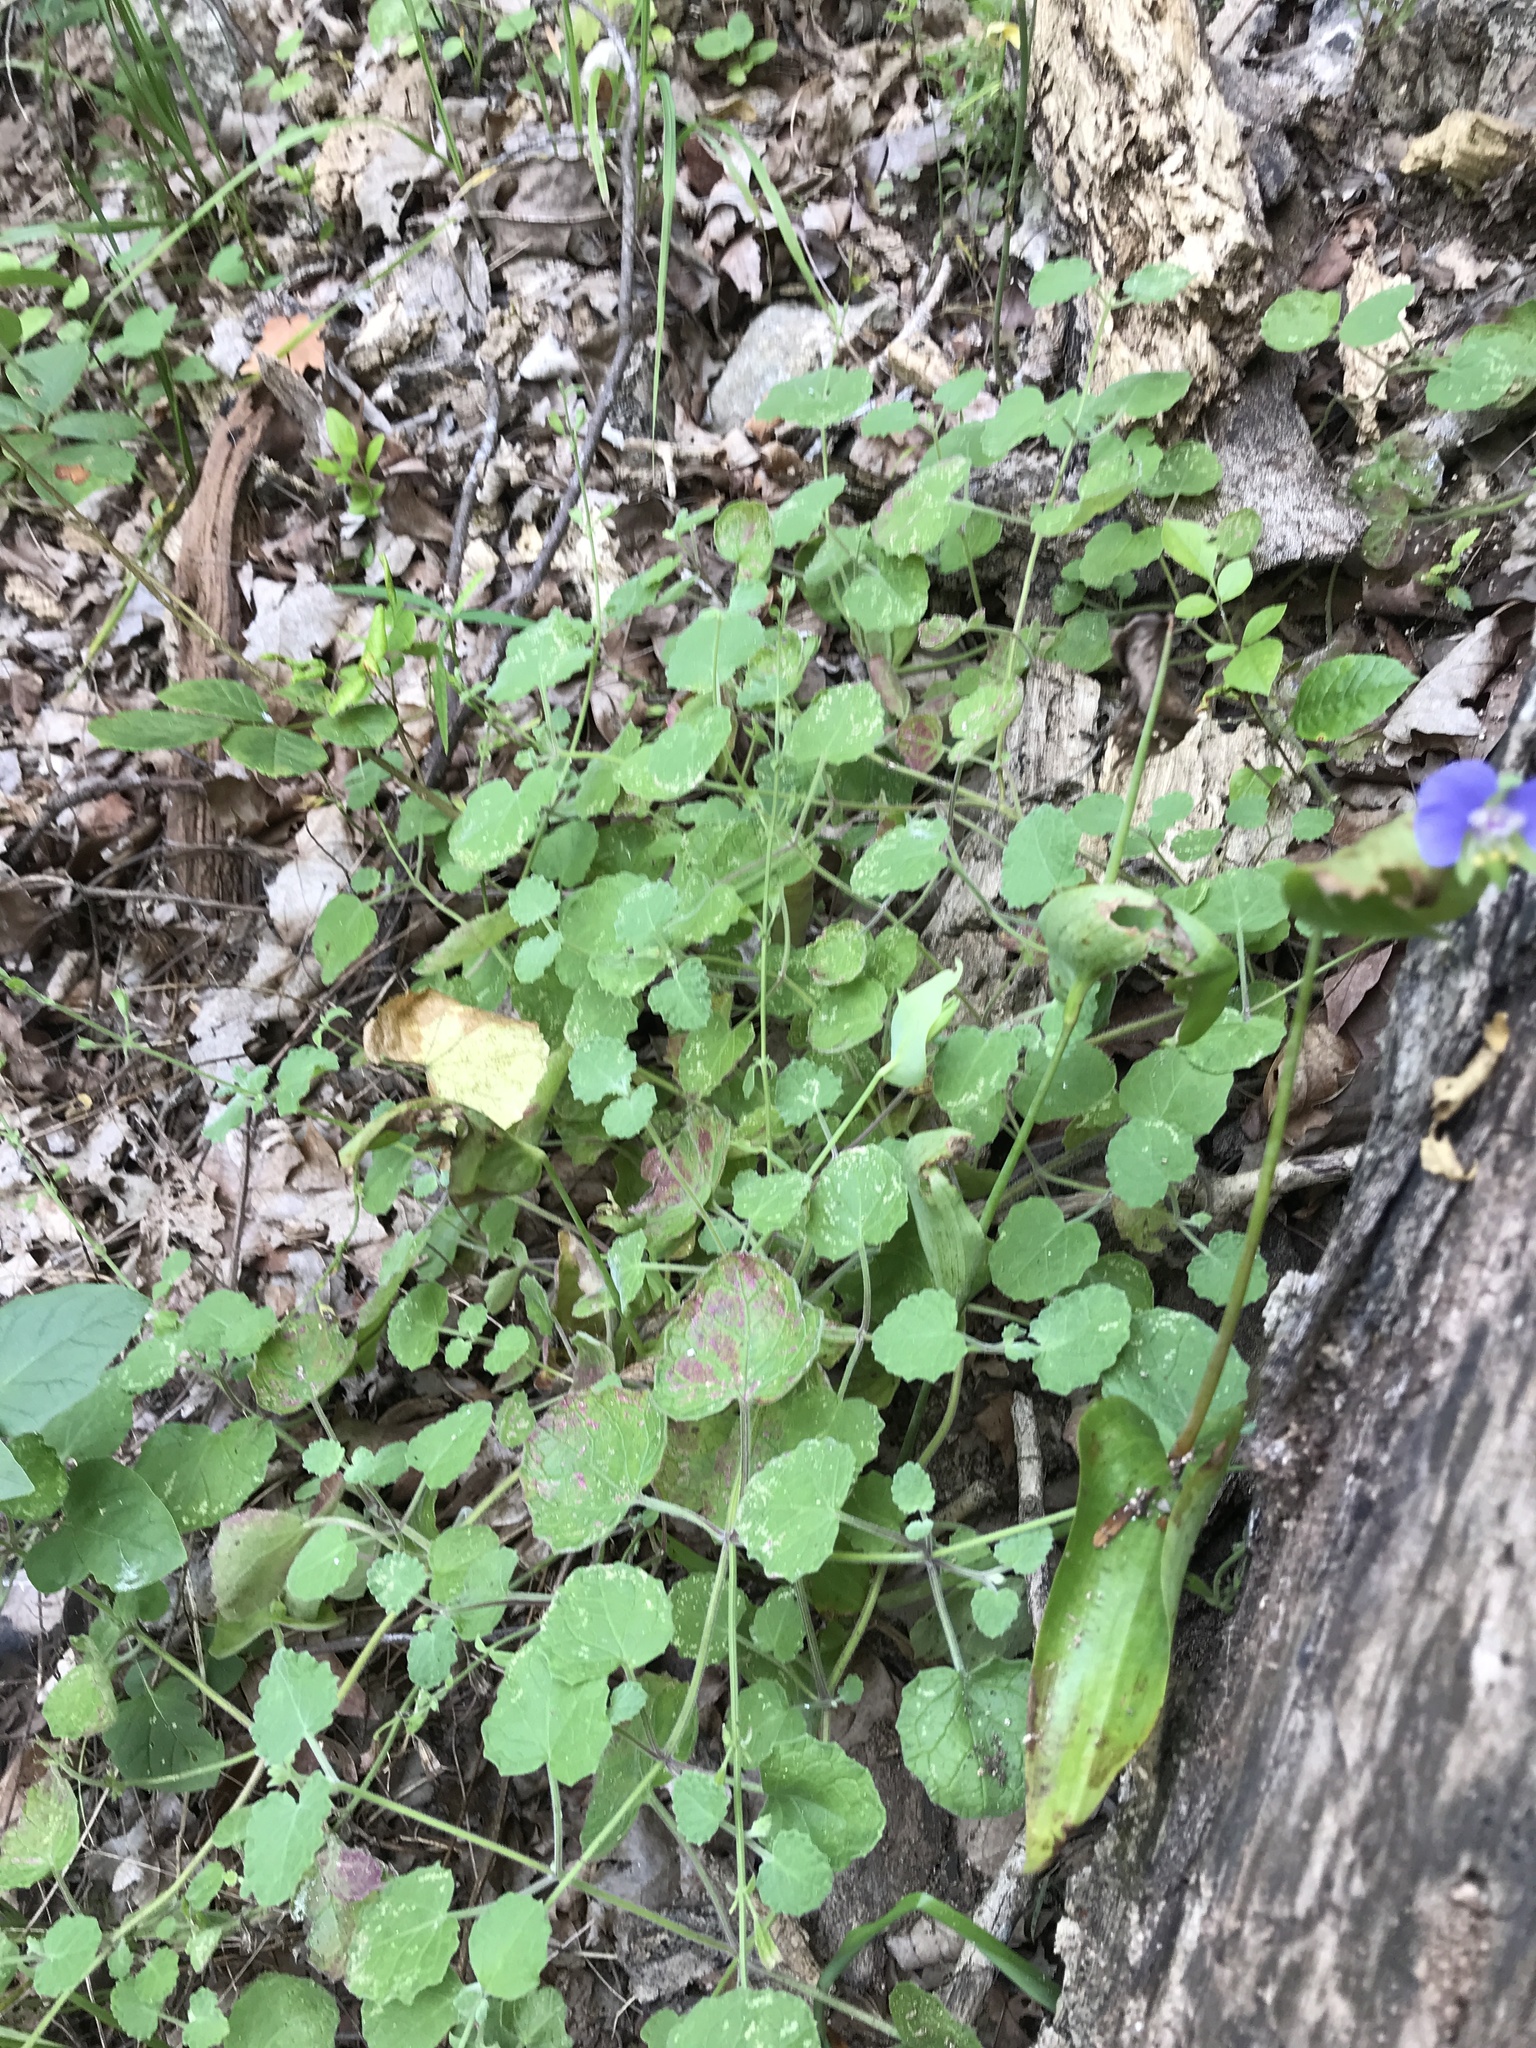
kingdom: Plantae
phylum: Tracheophyta
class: Magnoliopsida
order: Lamiales
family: Lamiaceae
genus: Salvia
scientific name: Salvia roemeriana
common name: Cedar sage
